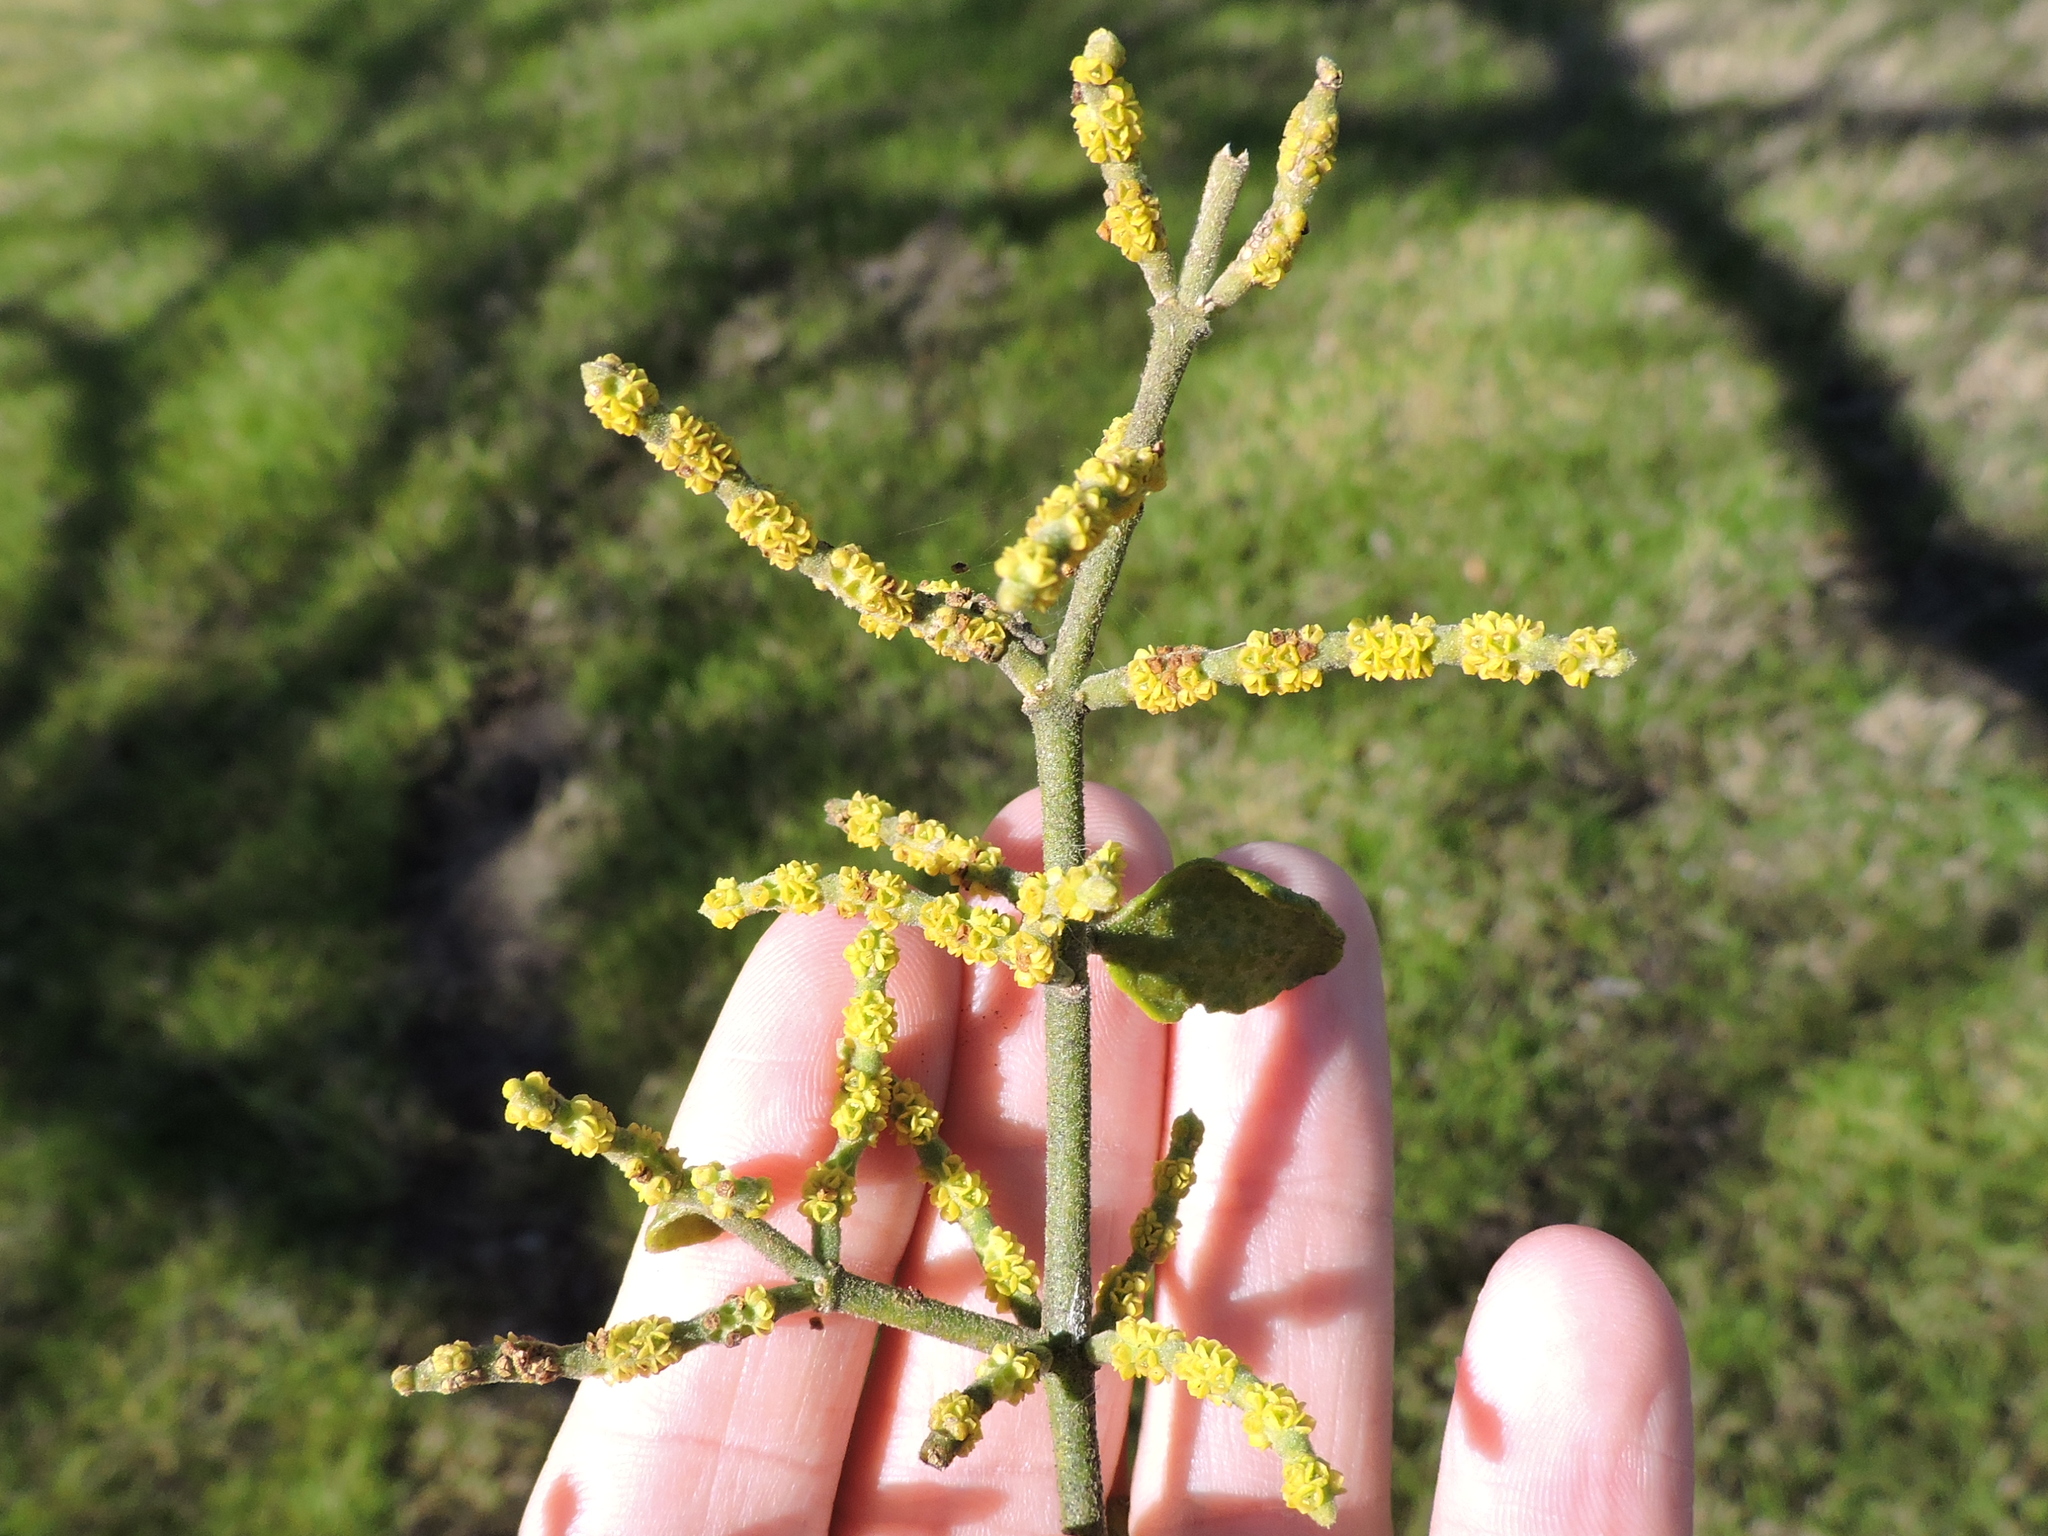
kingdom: Plantae
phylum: Tracheophyta
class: Magnoliopsida
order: Santalales
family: Viscaceae
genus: Phoradendron
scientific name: Phoradendron leucarpum
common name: Pacific mistletoe
